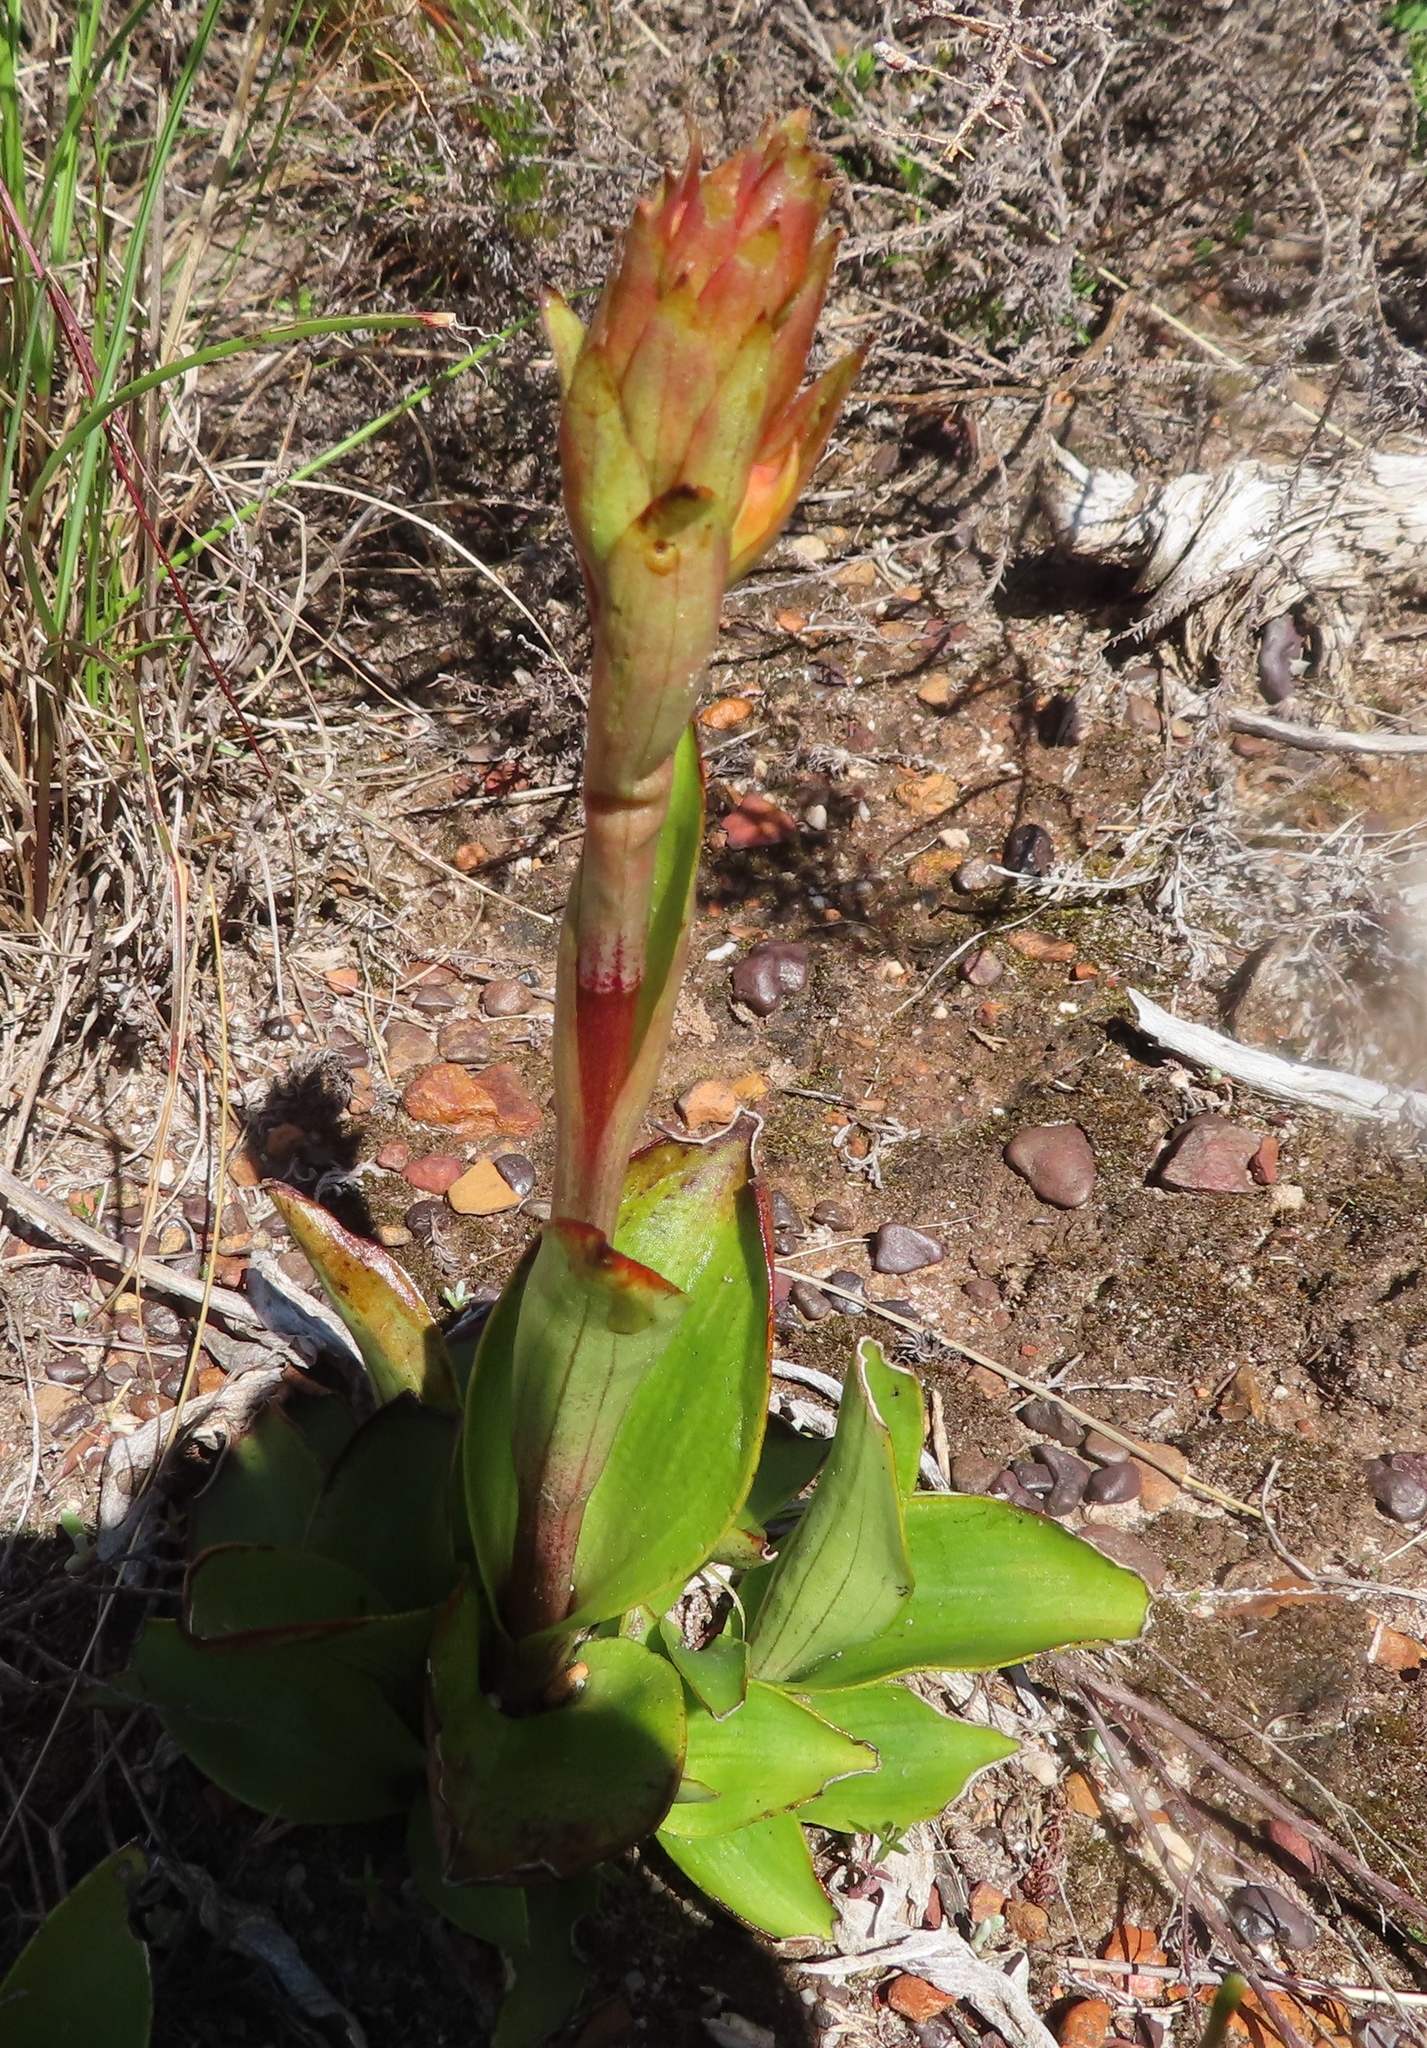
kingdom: Plantae
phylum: Tracheophyta
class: Liliopsida
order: Asparagales
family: Orchidaceae
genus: Satyrium
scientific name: Satyrium coriifolium
